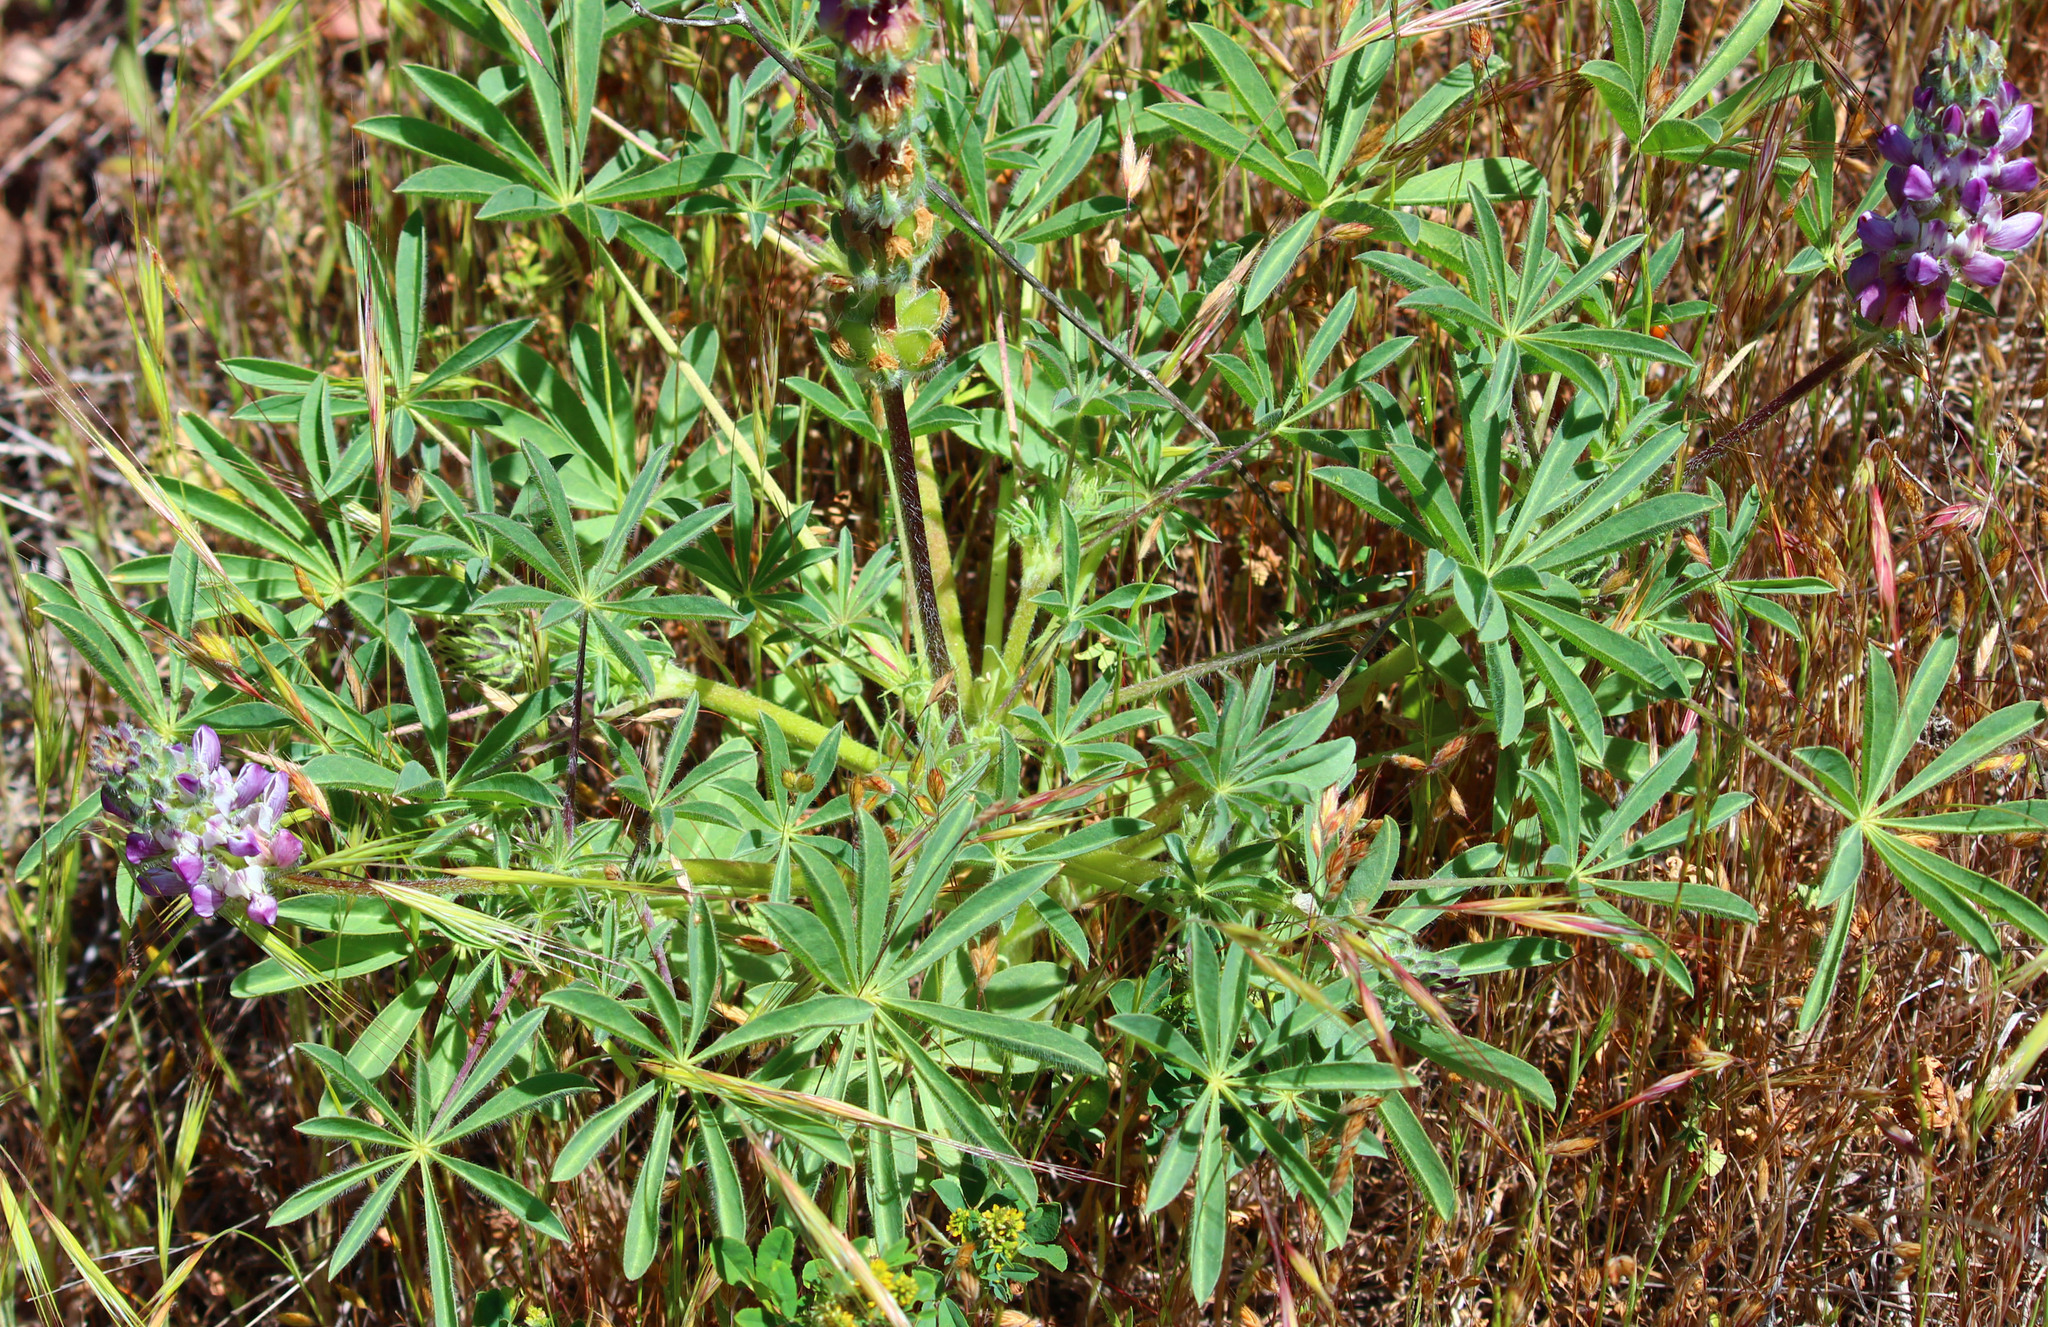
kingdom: Plantae
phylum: Tracheophyta
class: Magnoliopsida
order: Fabales
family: Fabaceae
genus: Lupinus
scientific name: Lupinus microcarpus
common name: Chick lupine
